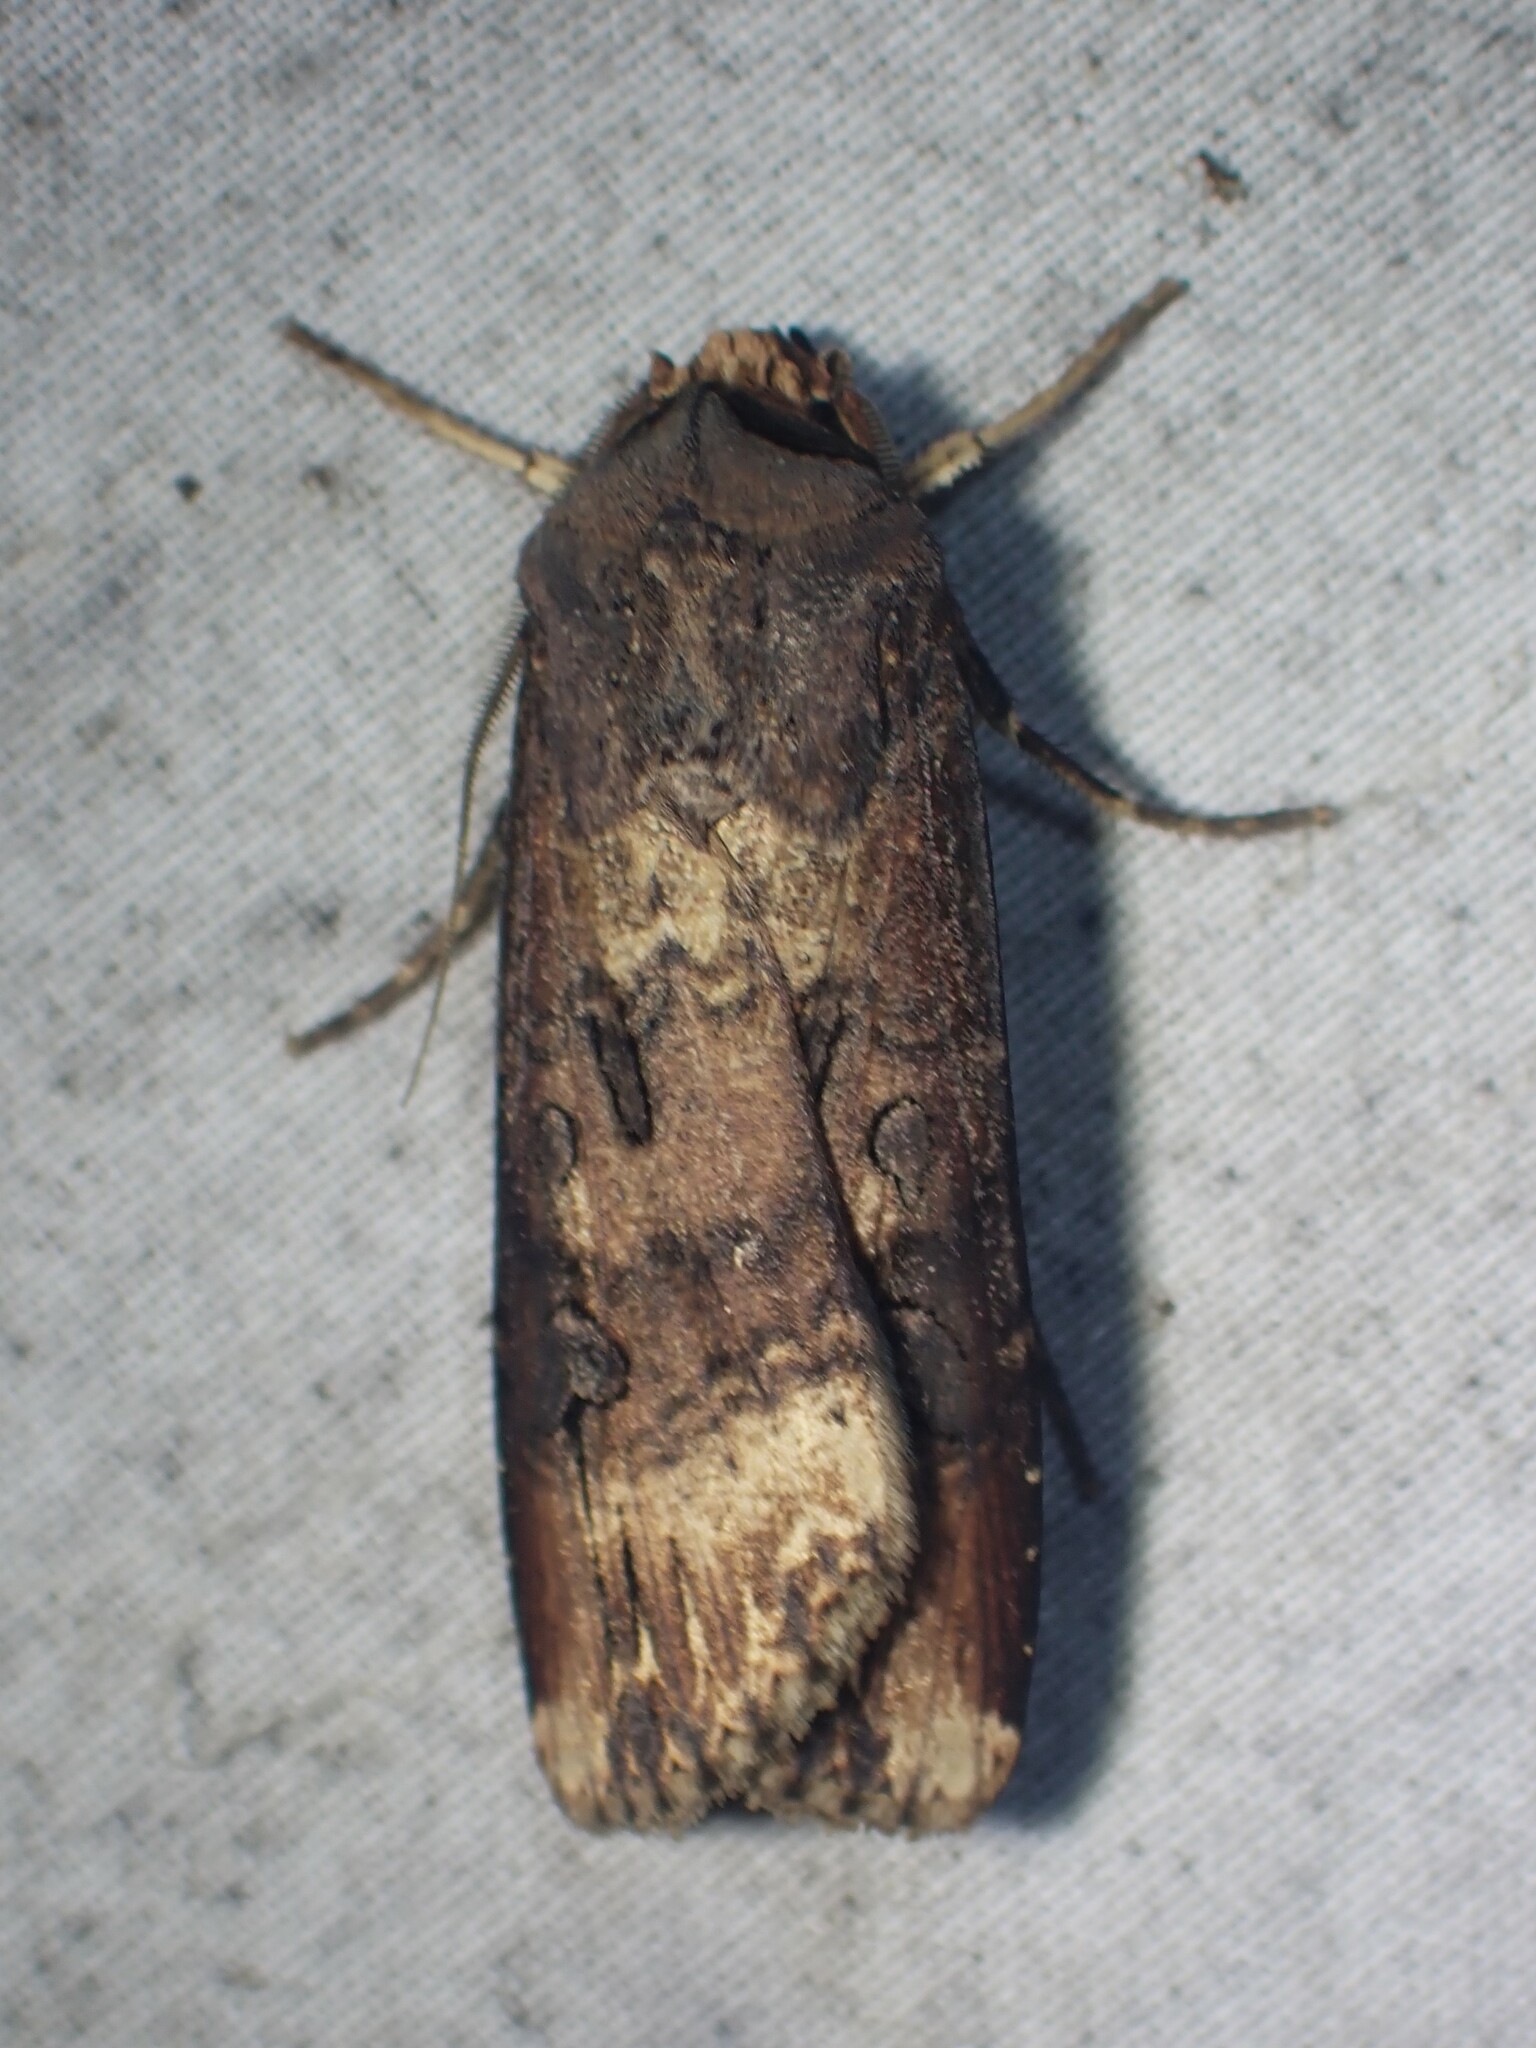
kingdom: Animalia
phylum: Arthropoda
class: Insecta
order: Lepidoptera
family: Noctuidae
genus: Agrotis
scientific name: Agrotis ipsilon
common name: Dark sword-grass
